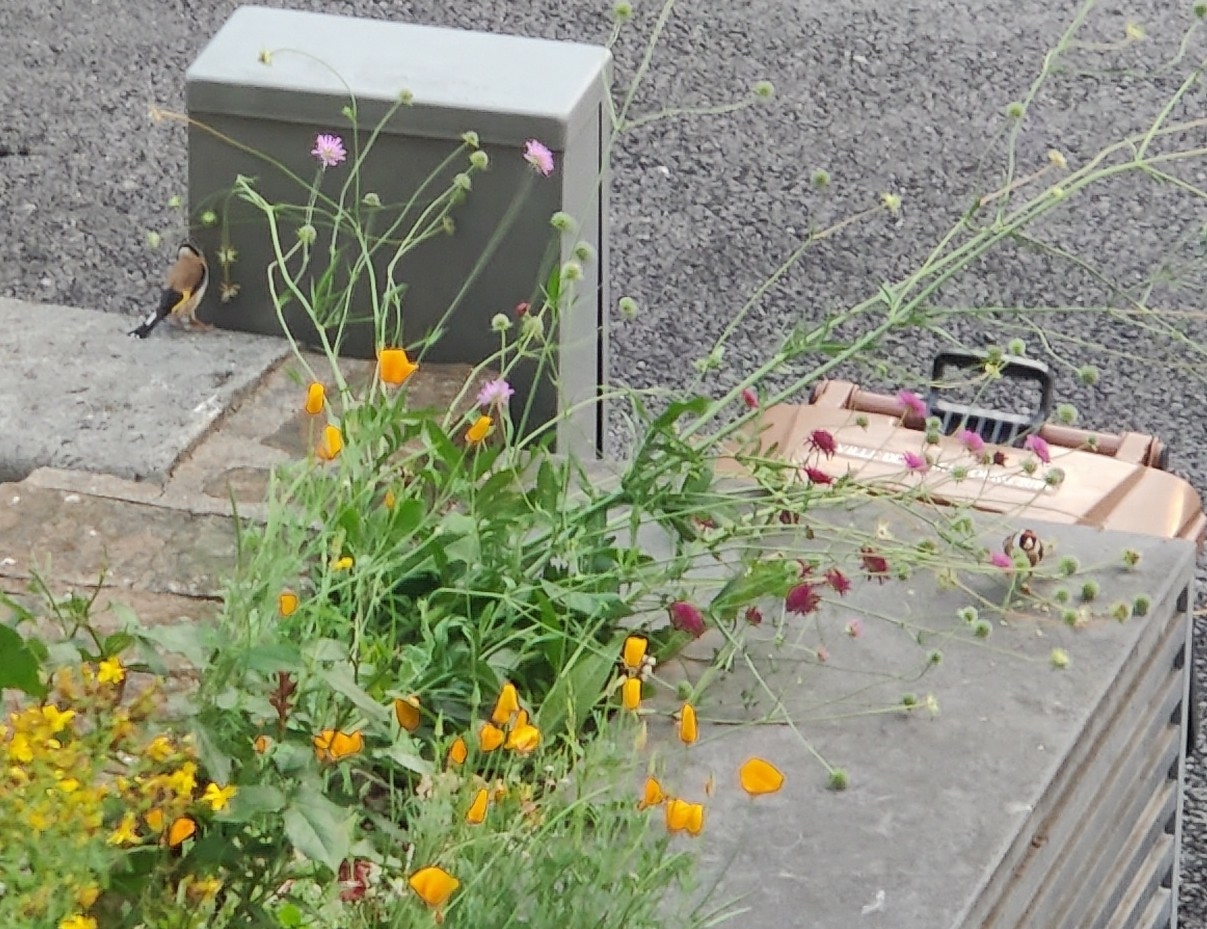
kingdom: Animalia
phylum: Chordata
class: Aves
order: Passeriformes
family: Fringillidae
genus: Carduelis
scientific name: Carduelis carduelis
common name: European goldfinch
